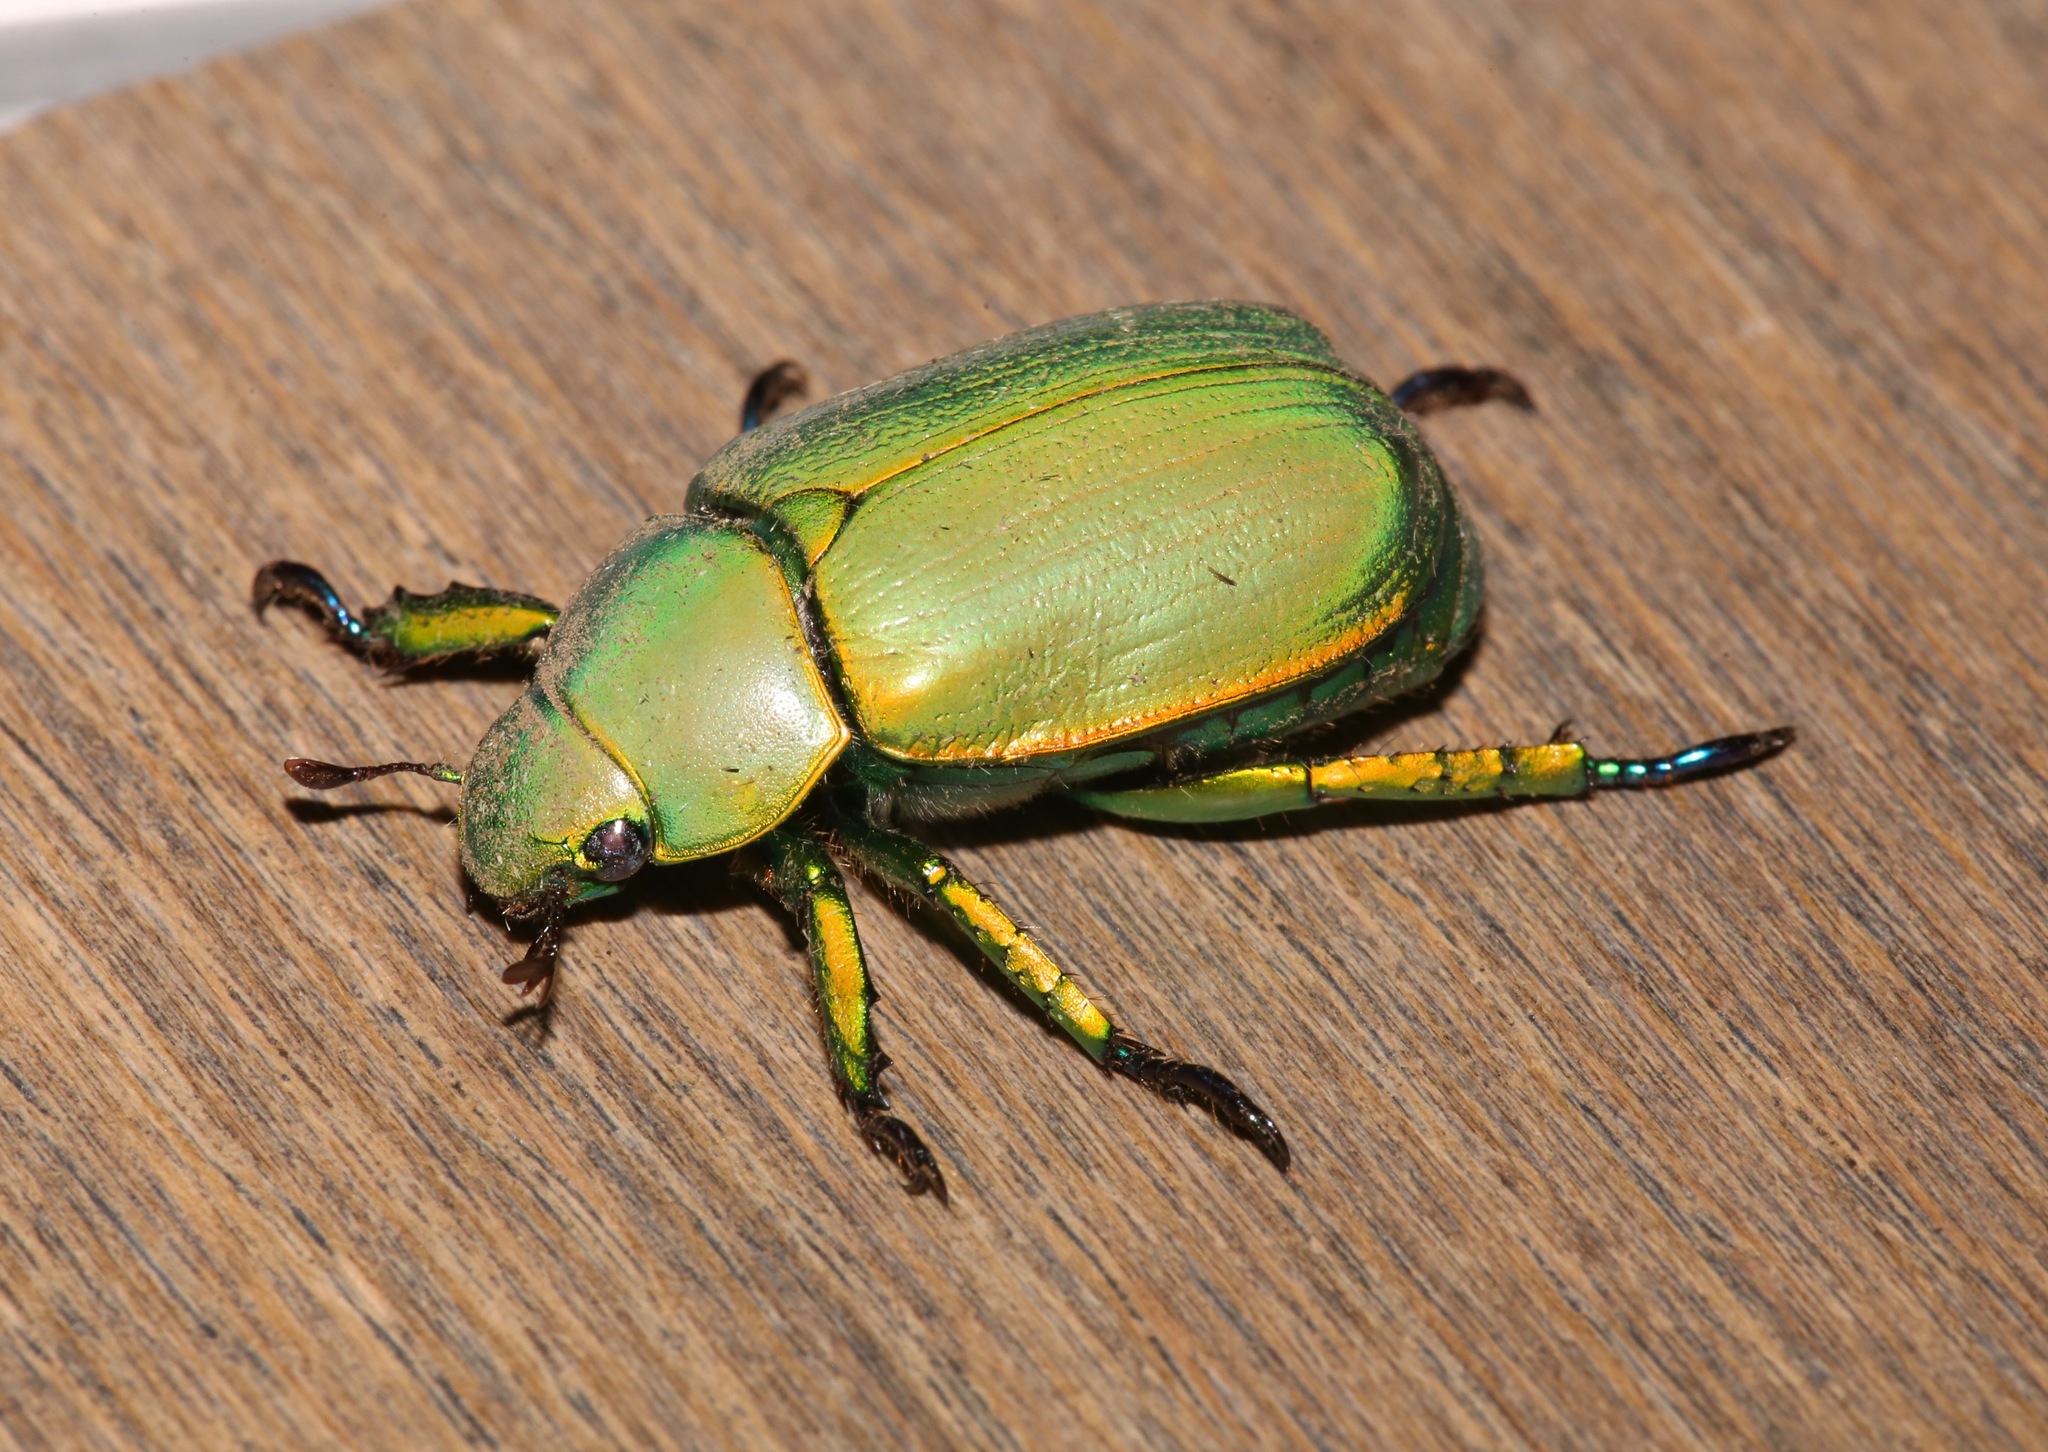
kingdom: Animalia
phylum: Arthropoda
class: Insecta
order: Coleoptera
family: Scarabaeidae
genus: Chrysina
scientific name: Chrysina woodi
